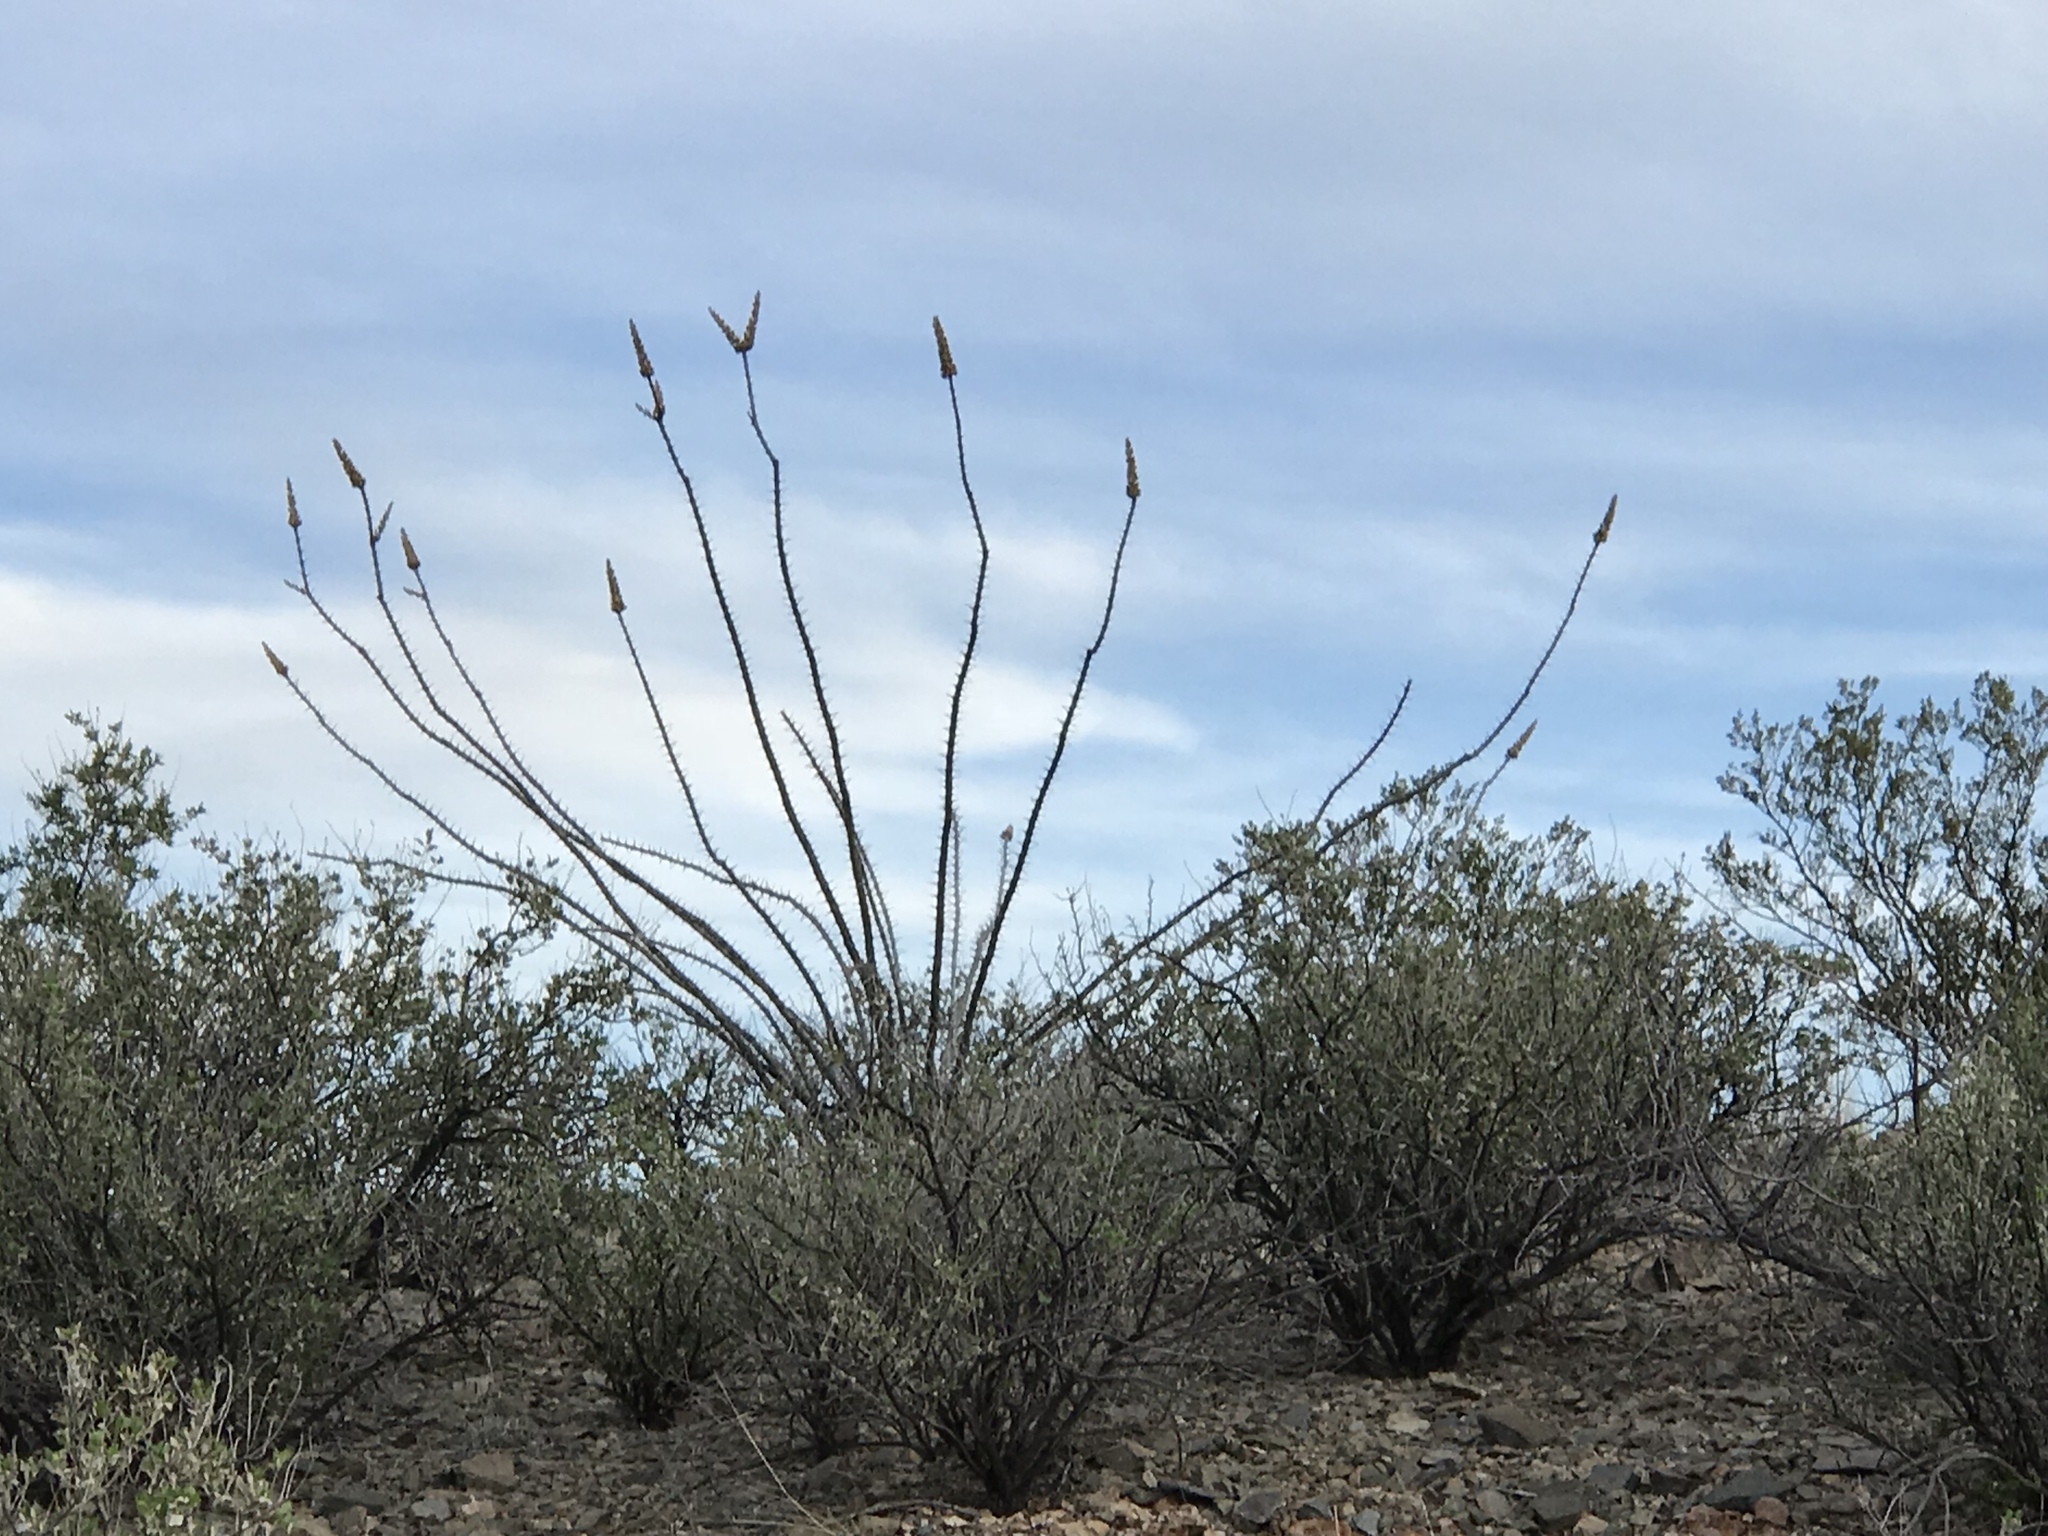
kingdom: Plantae
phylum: Tracheophyta
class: Magnoliopsida
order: Ericales
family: Fouquieriaceae
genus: Fouquieria
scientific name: Fouquieria splendens
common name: Vine-cactus
